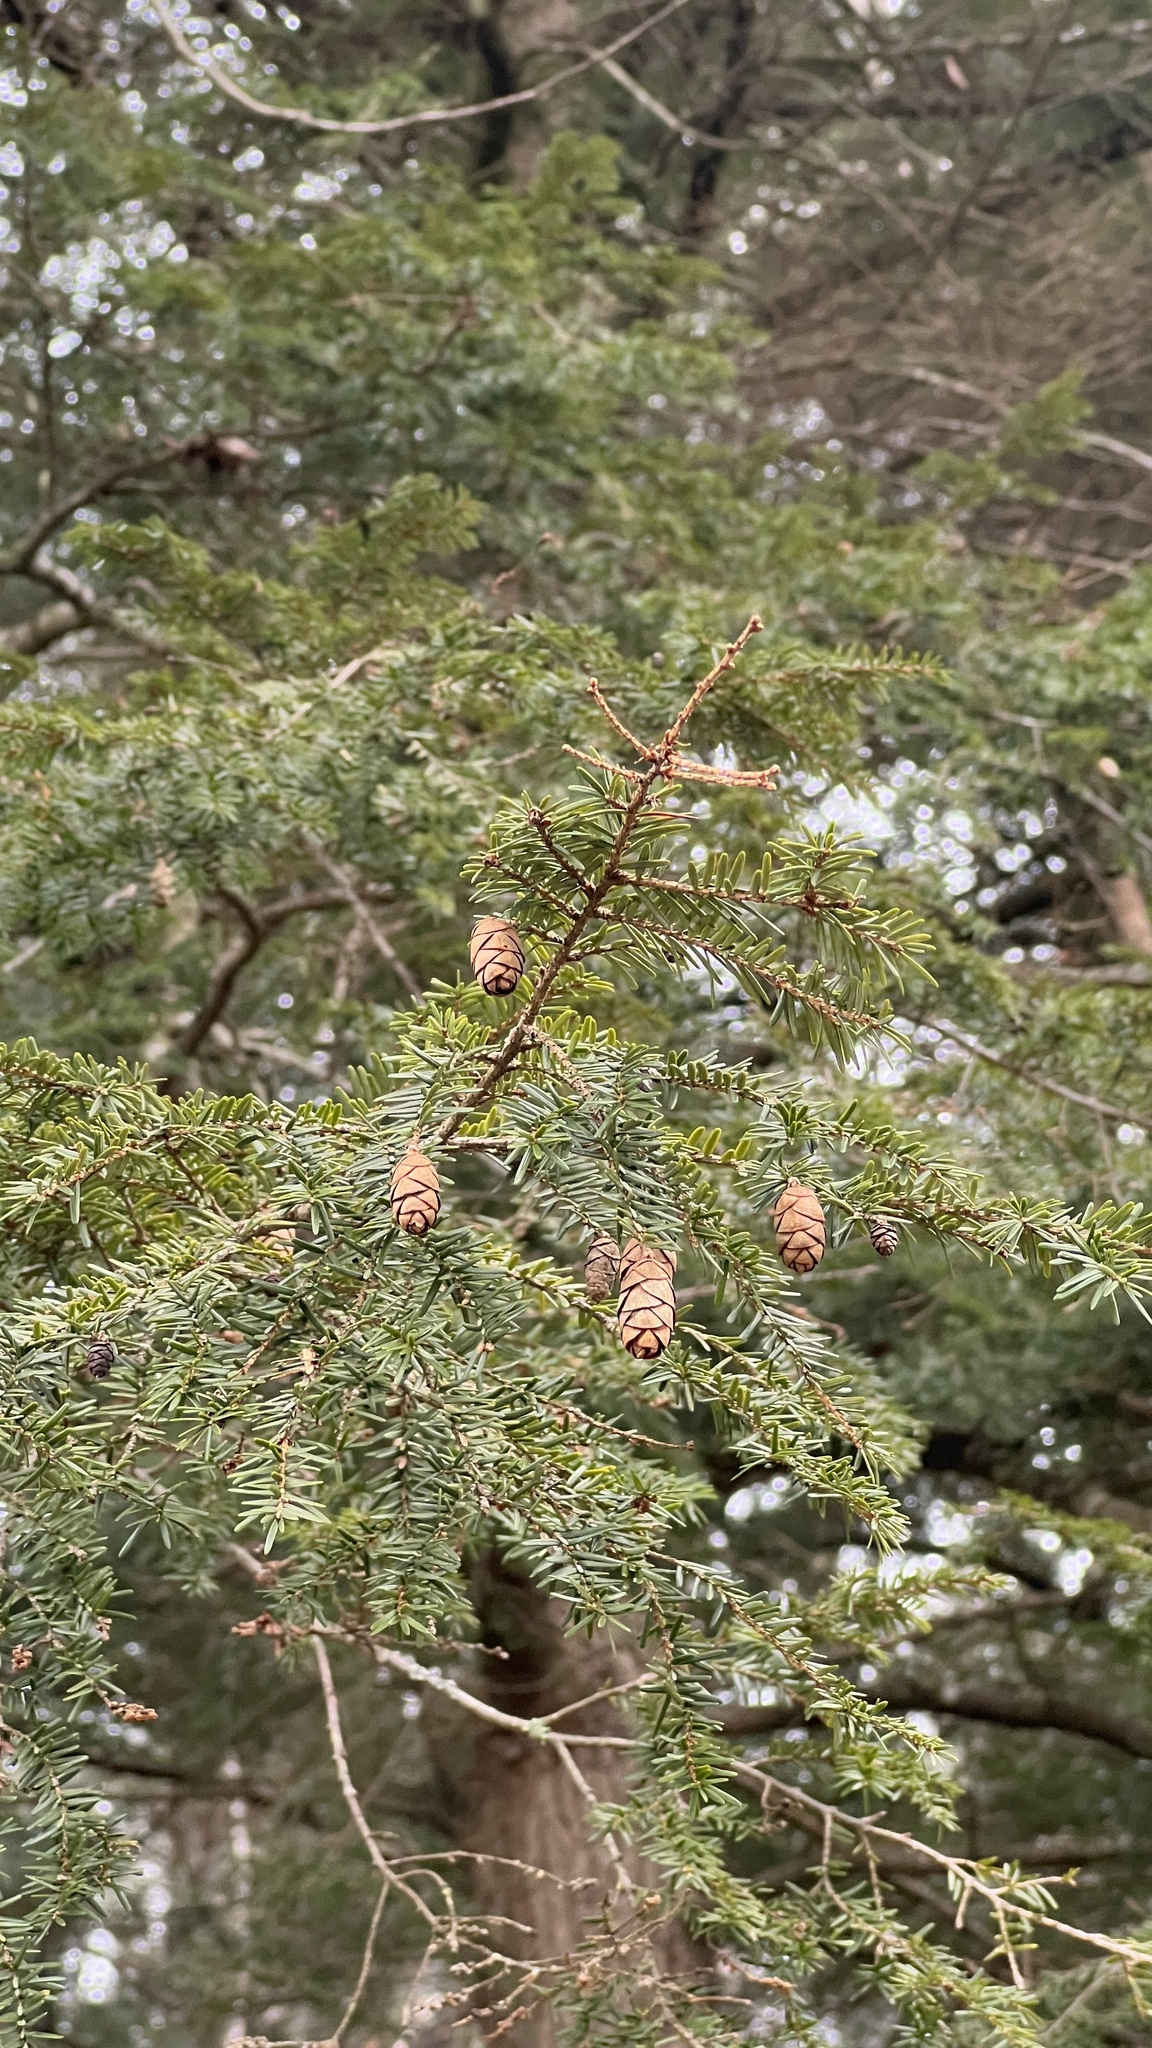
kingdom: Plantae
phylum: Tracheophyta
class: Pinopsida
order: Pinales
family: Pinaceae
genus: Tsuga
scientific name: Tsuga canadensis
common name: Eastern hemlock
